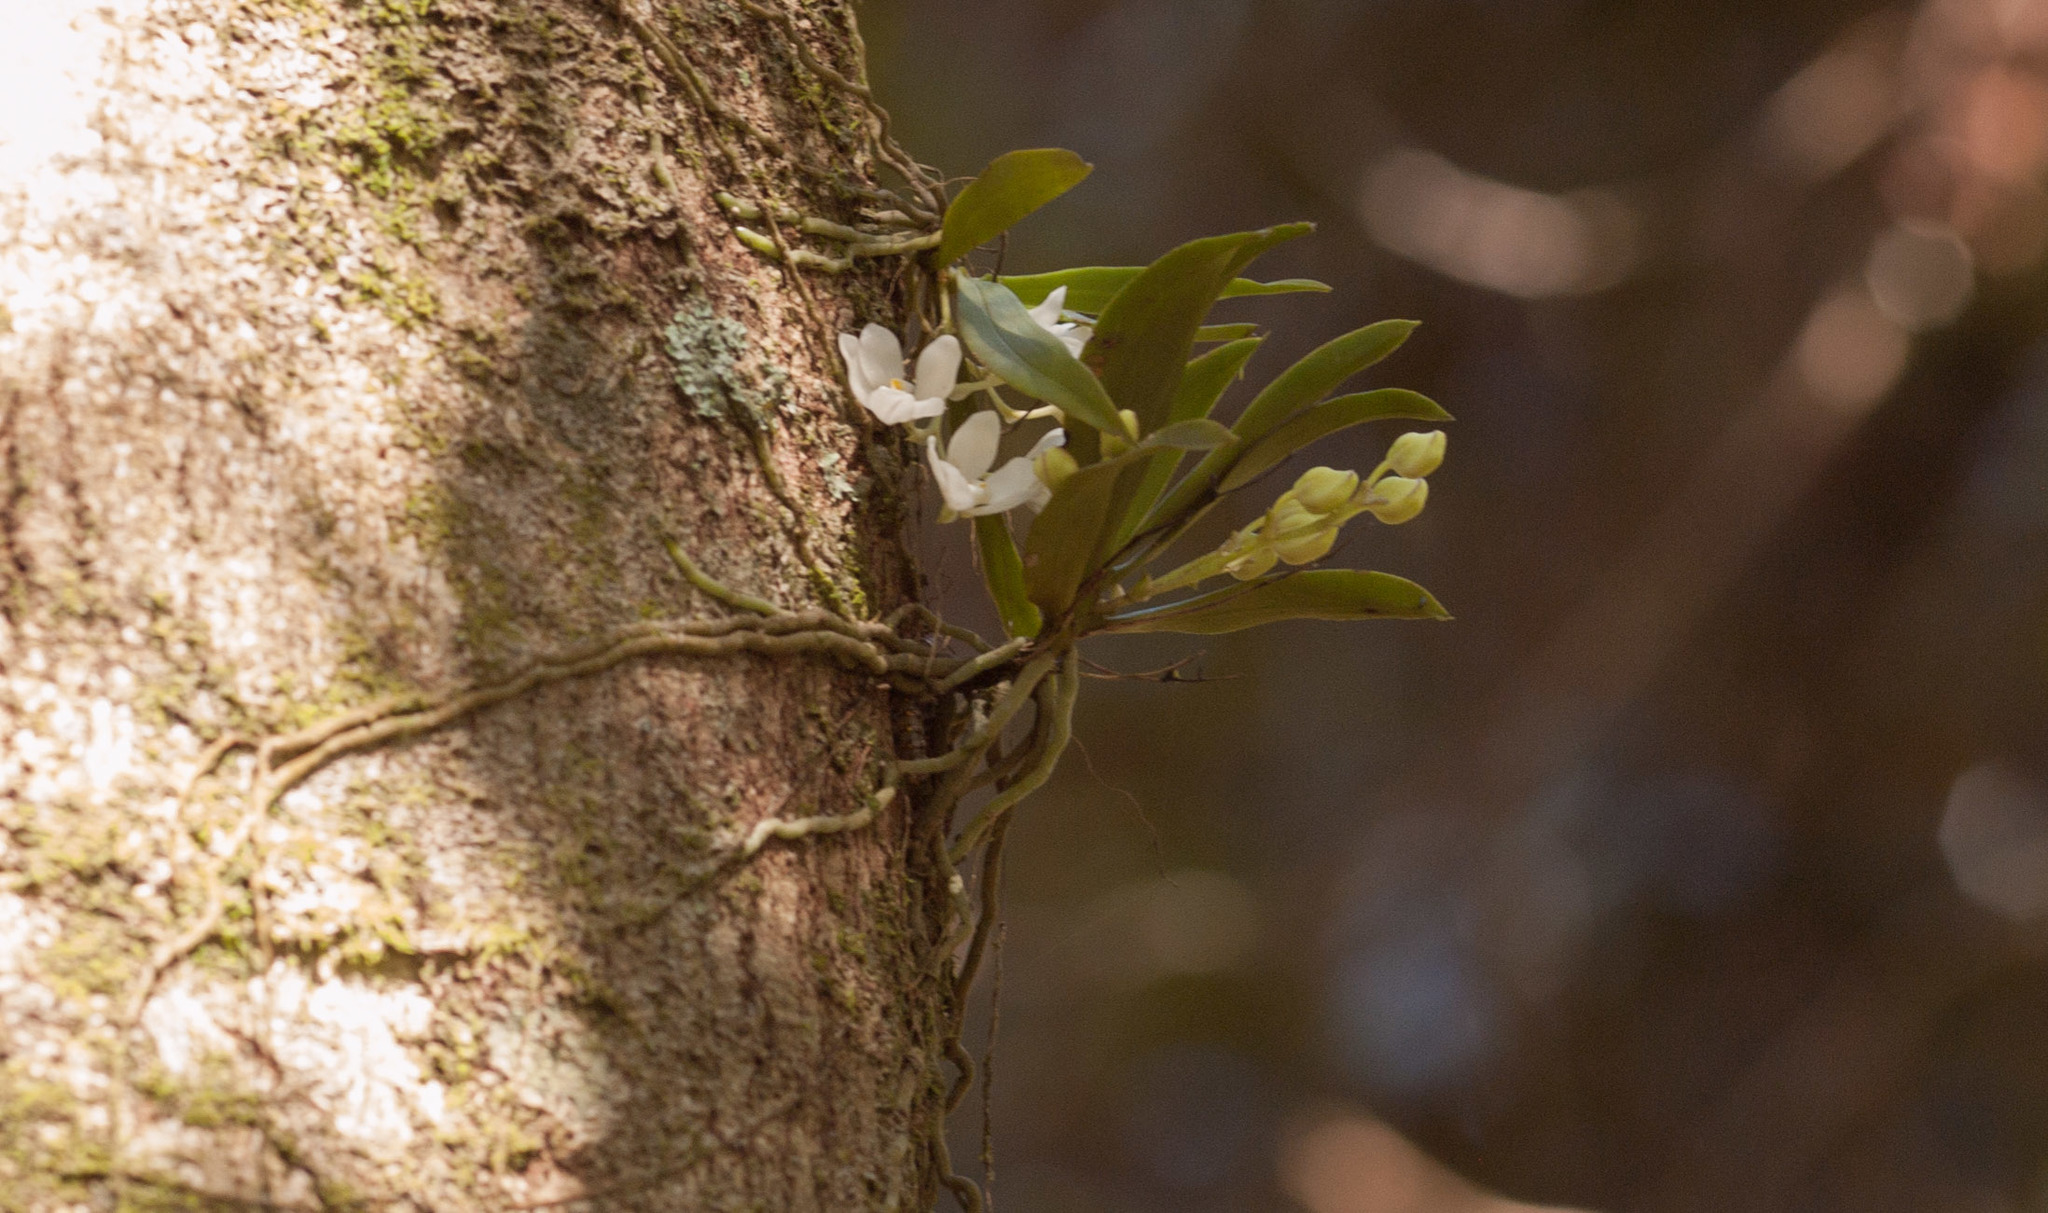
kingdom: Plantae
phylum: Tracheophyta
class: Liliopsida
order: Asparagales
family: Orchidaceae
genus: Sarcochilus
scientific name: Sarcochilus falcatus
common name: Orange blossom orchid
